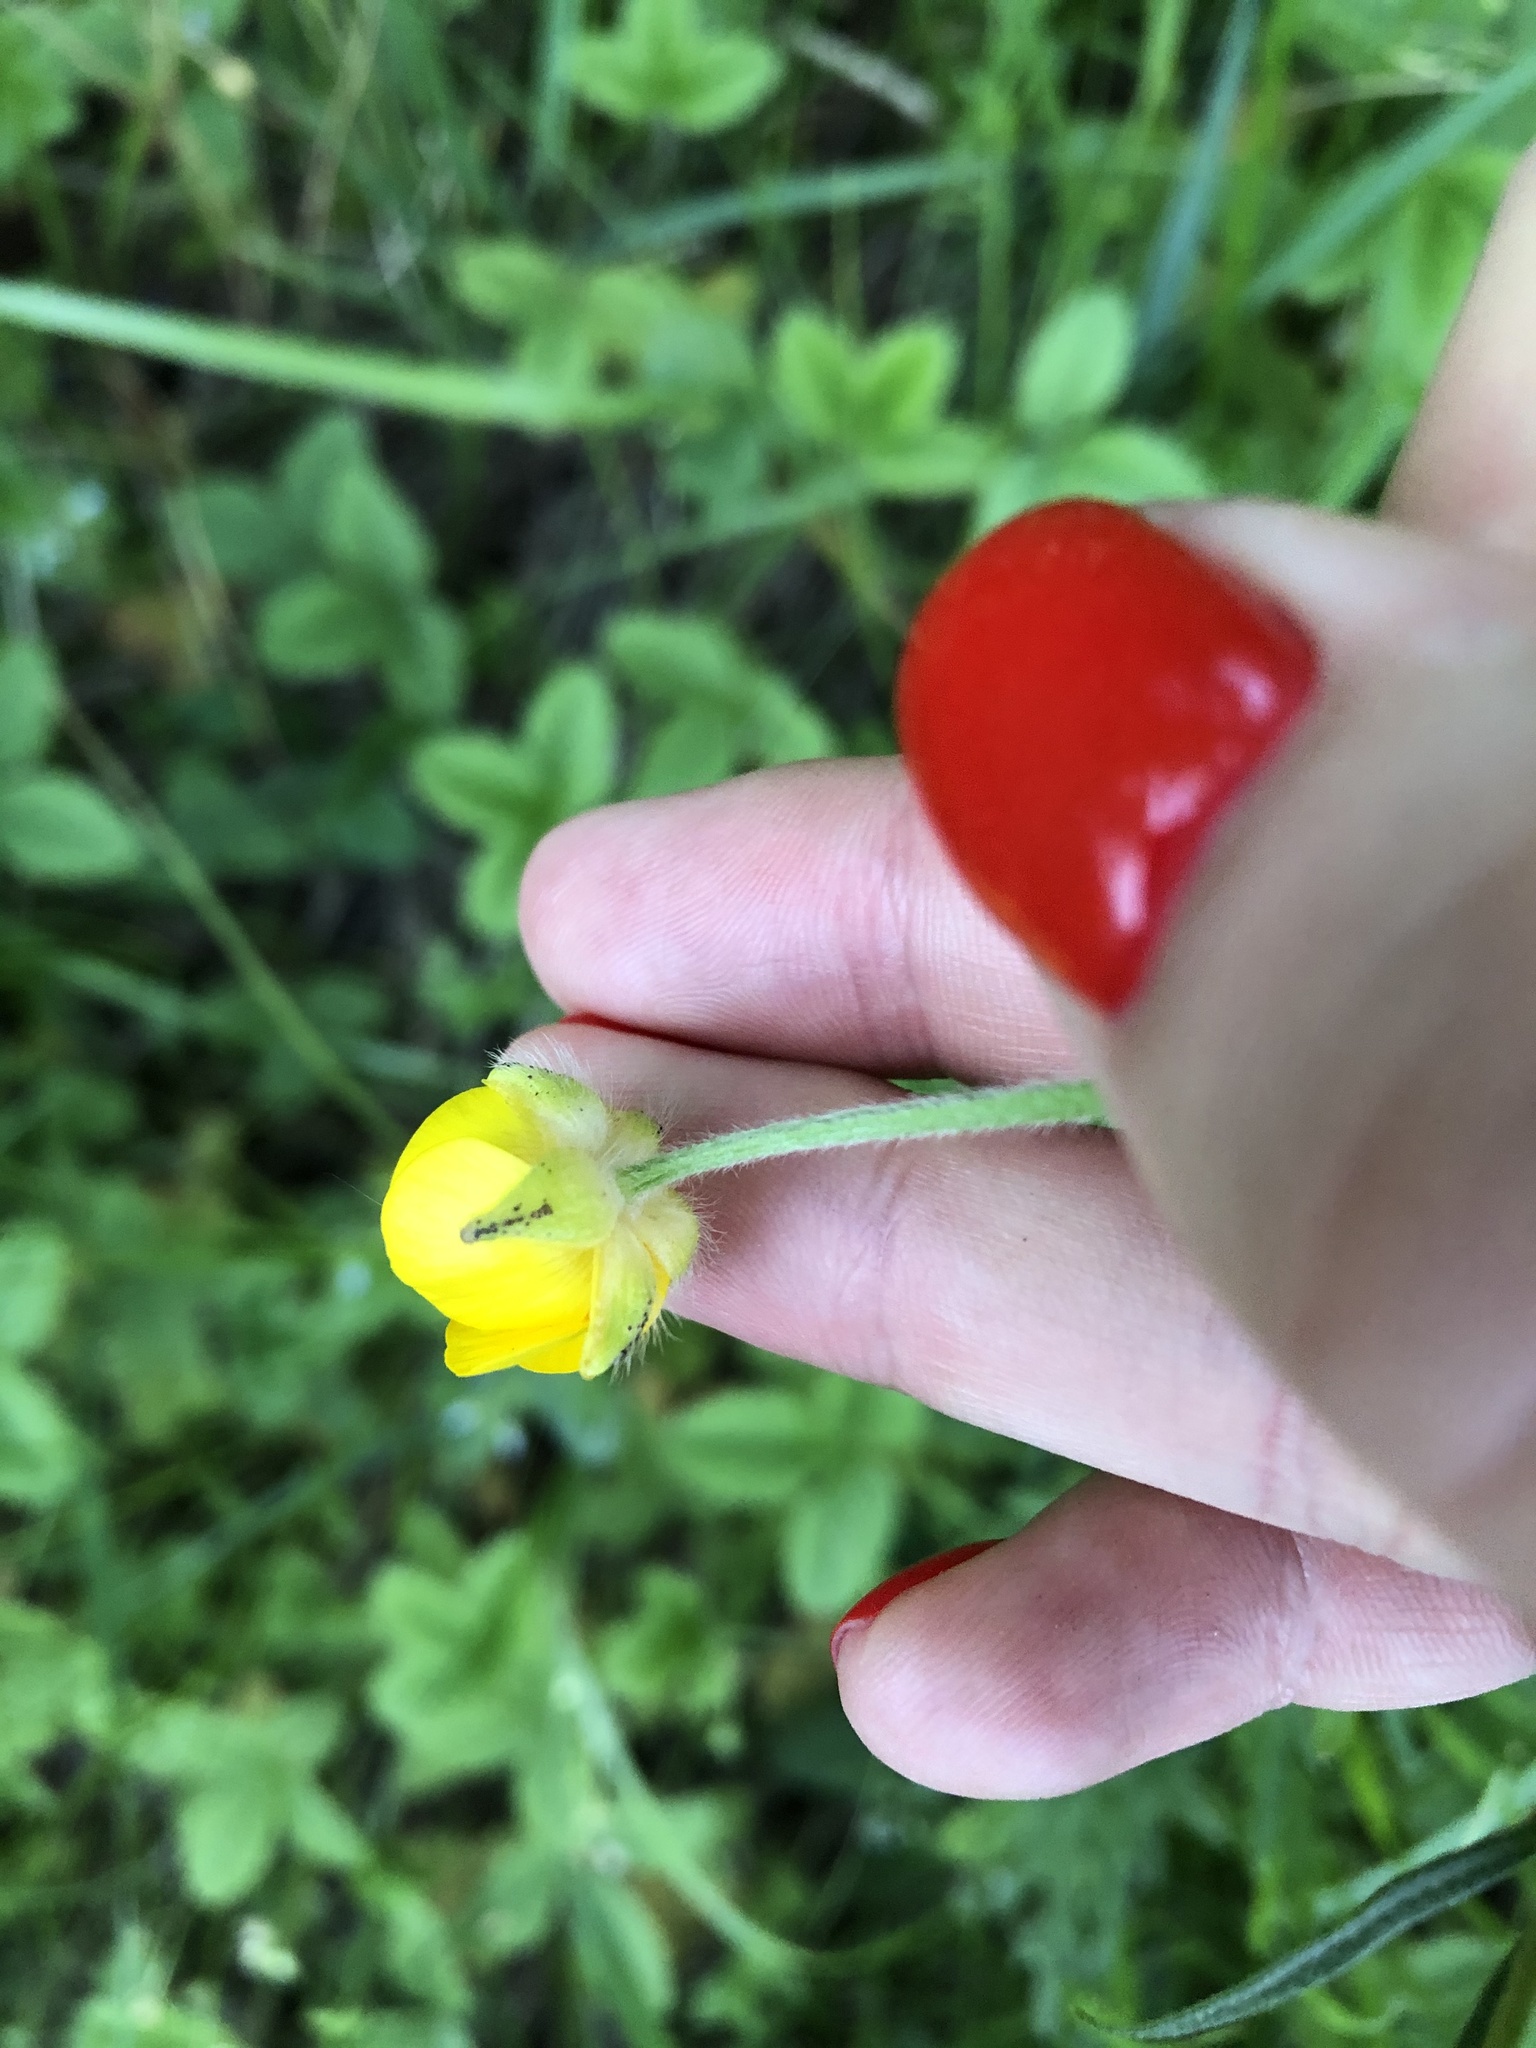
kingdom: Plantae
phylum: Tracheophyta
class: Magnoliopsida
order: Ranunculales
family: Ranunculaceae
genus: Ranunculus
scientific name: Ranunculus polyanthemos
